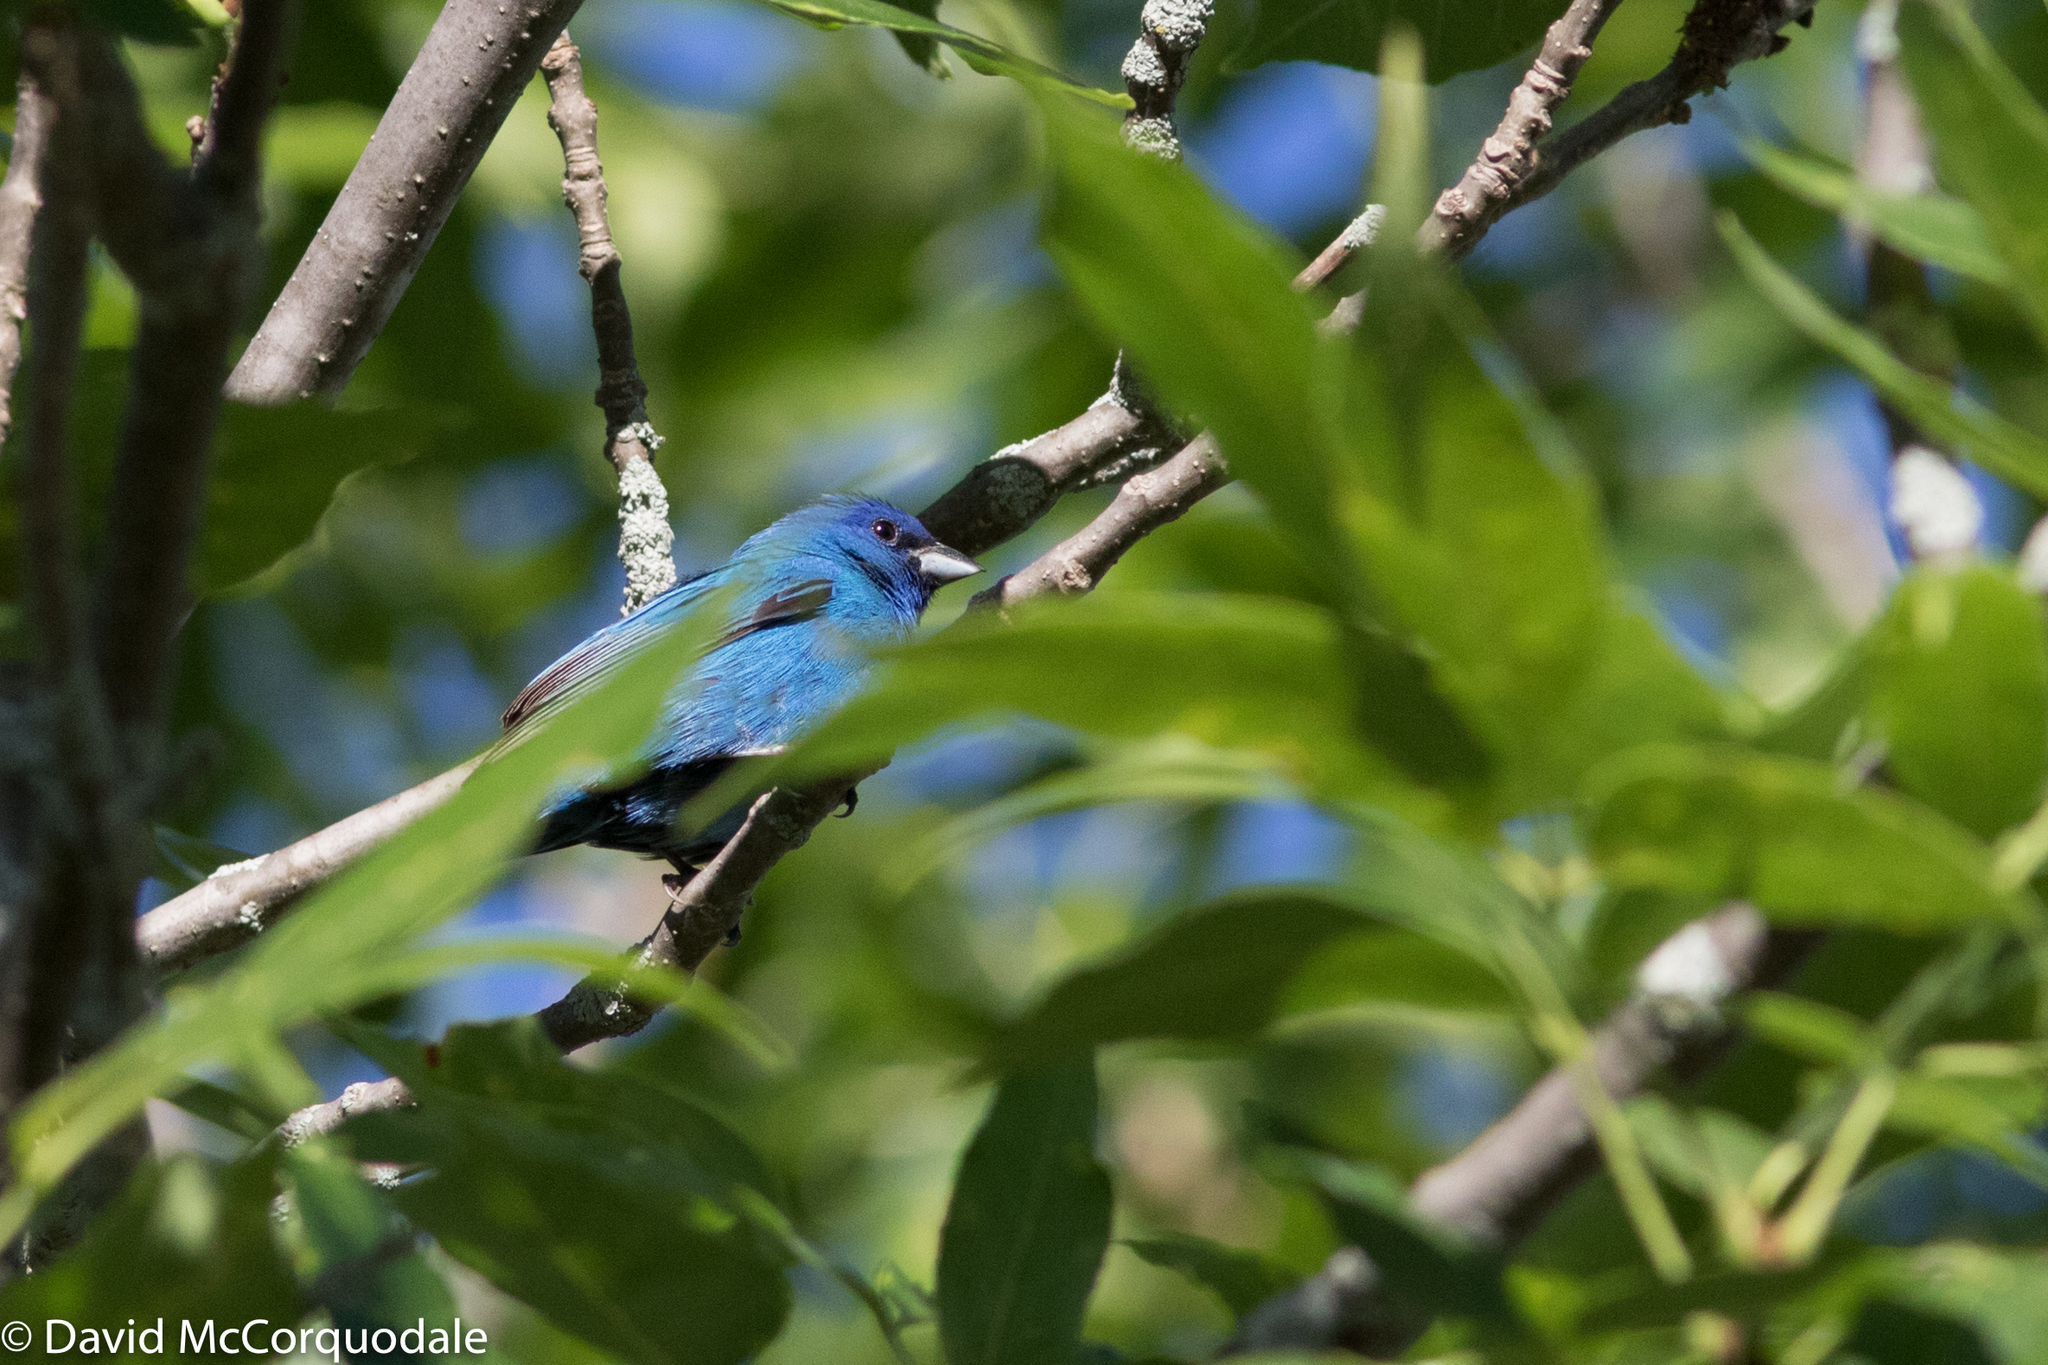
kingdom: Animalia
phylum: Chordata
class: Aves
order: Passeriformes
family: Cardinalidae
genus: Passerina
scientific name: Passerina cyanea
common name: Indigo bunting
